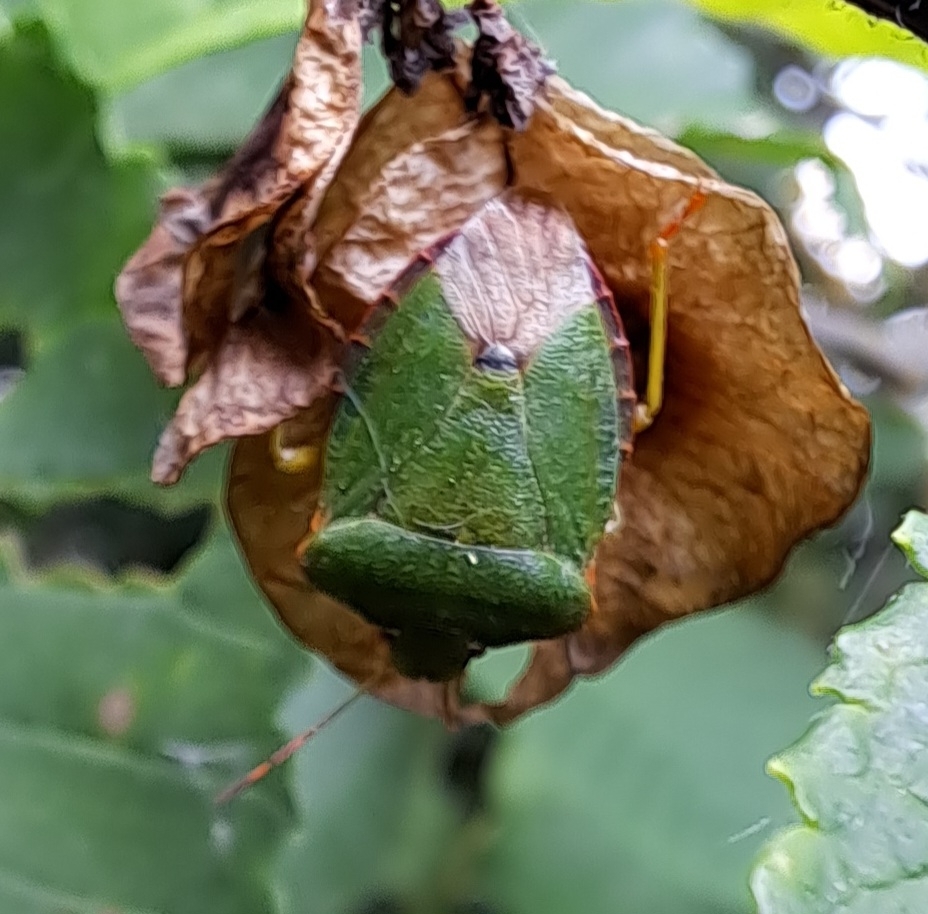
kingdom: Animalia
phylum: Arthropoda
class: Insecta
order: Hemiptera
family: Pentatomidae
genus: Palomena
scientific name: Palomena prasina
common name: Green shieldbug
